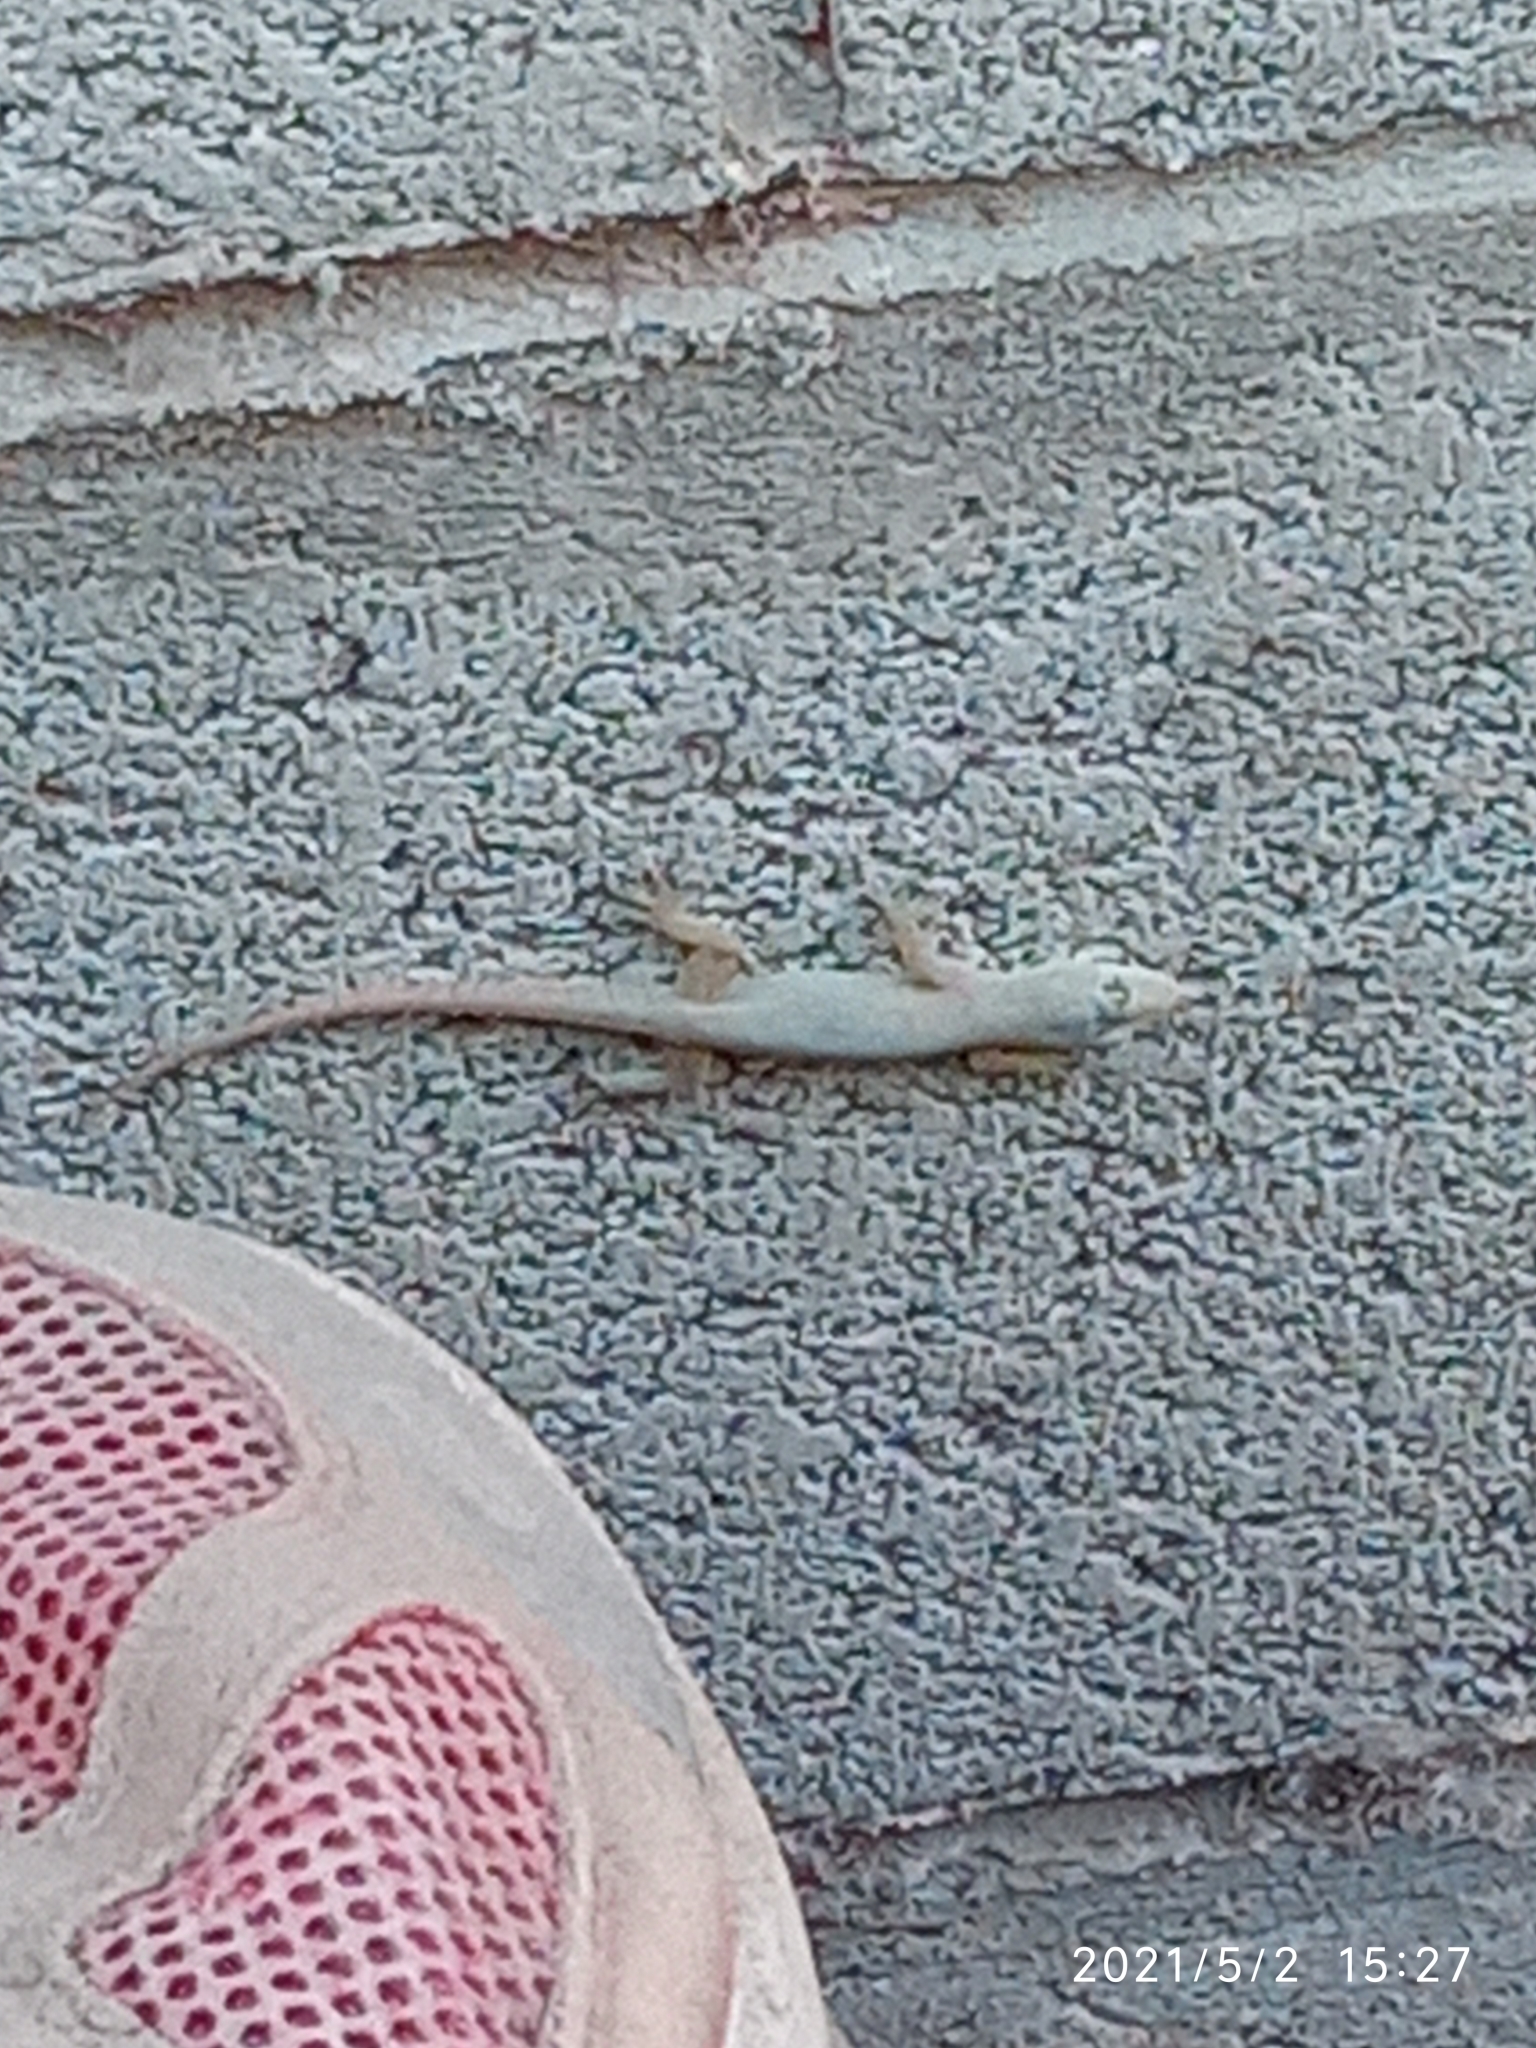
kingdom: Animalia
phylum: Chordata
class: Squamata
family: Gekkonidae
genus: Hemidactylus
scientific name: Hemidactylus frenatus
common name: Common house gecko
